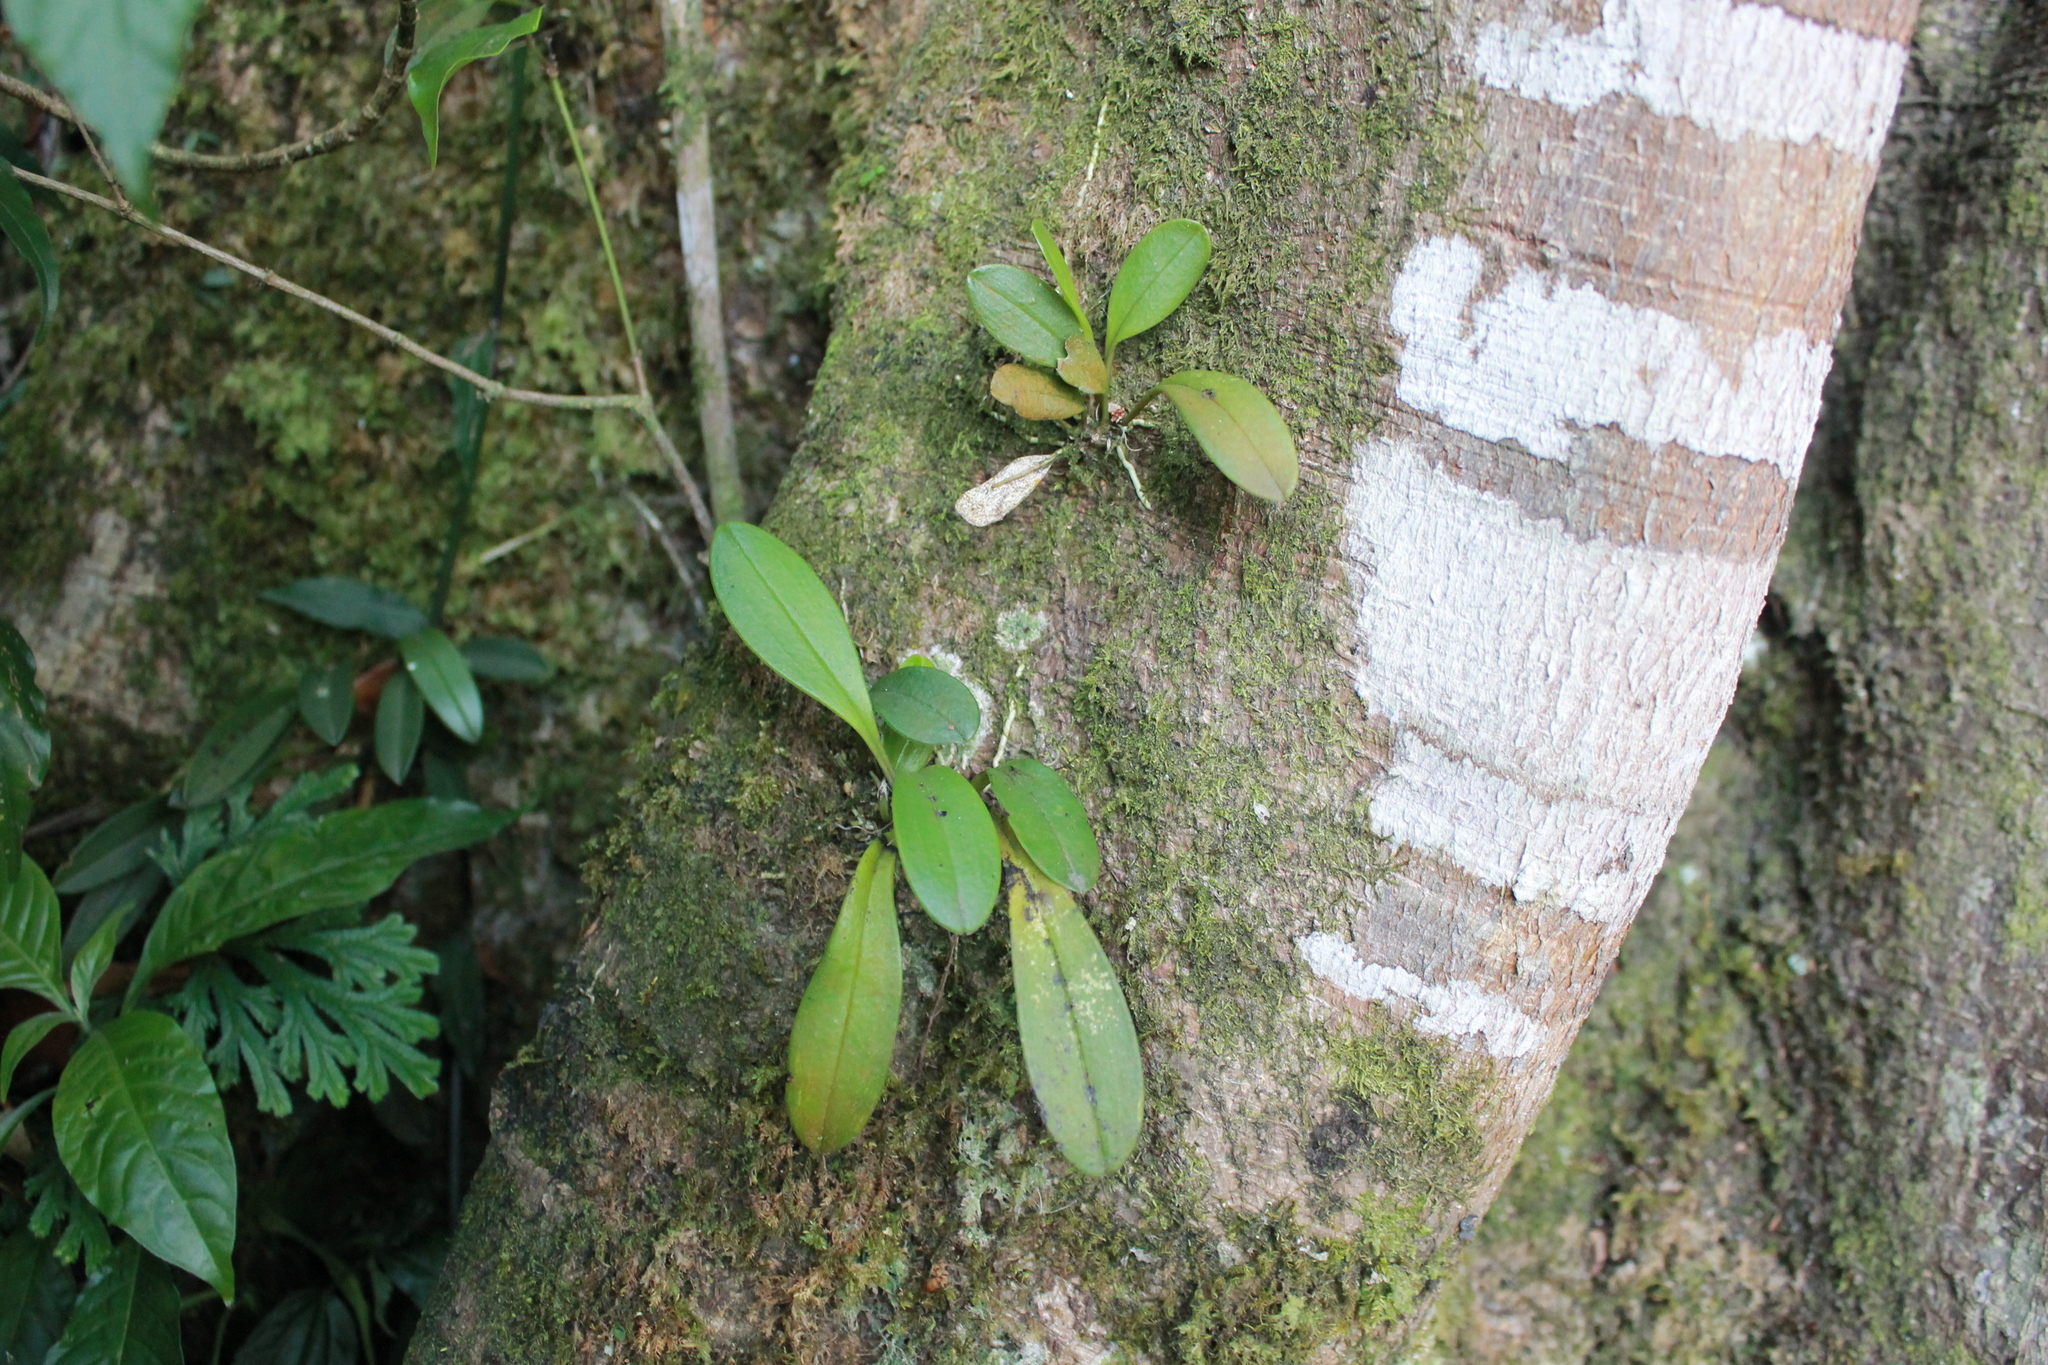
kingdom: Plantae
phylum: Tracheophyta
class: Liliopsida
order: Asparagales
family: Orchidaceae
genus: Masdevallia
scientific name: Masdevallia floribunda
